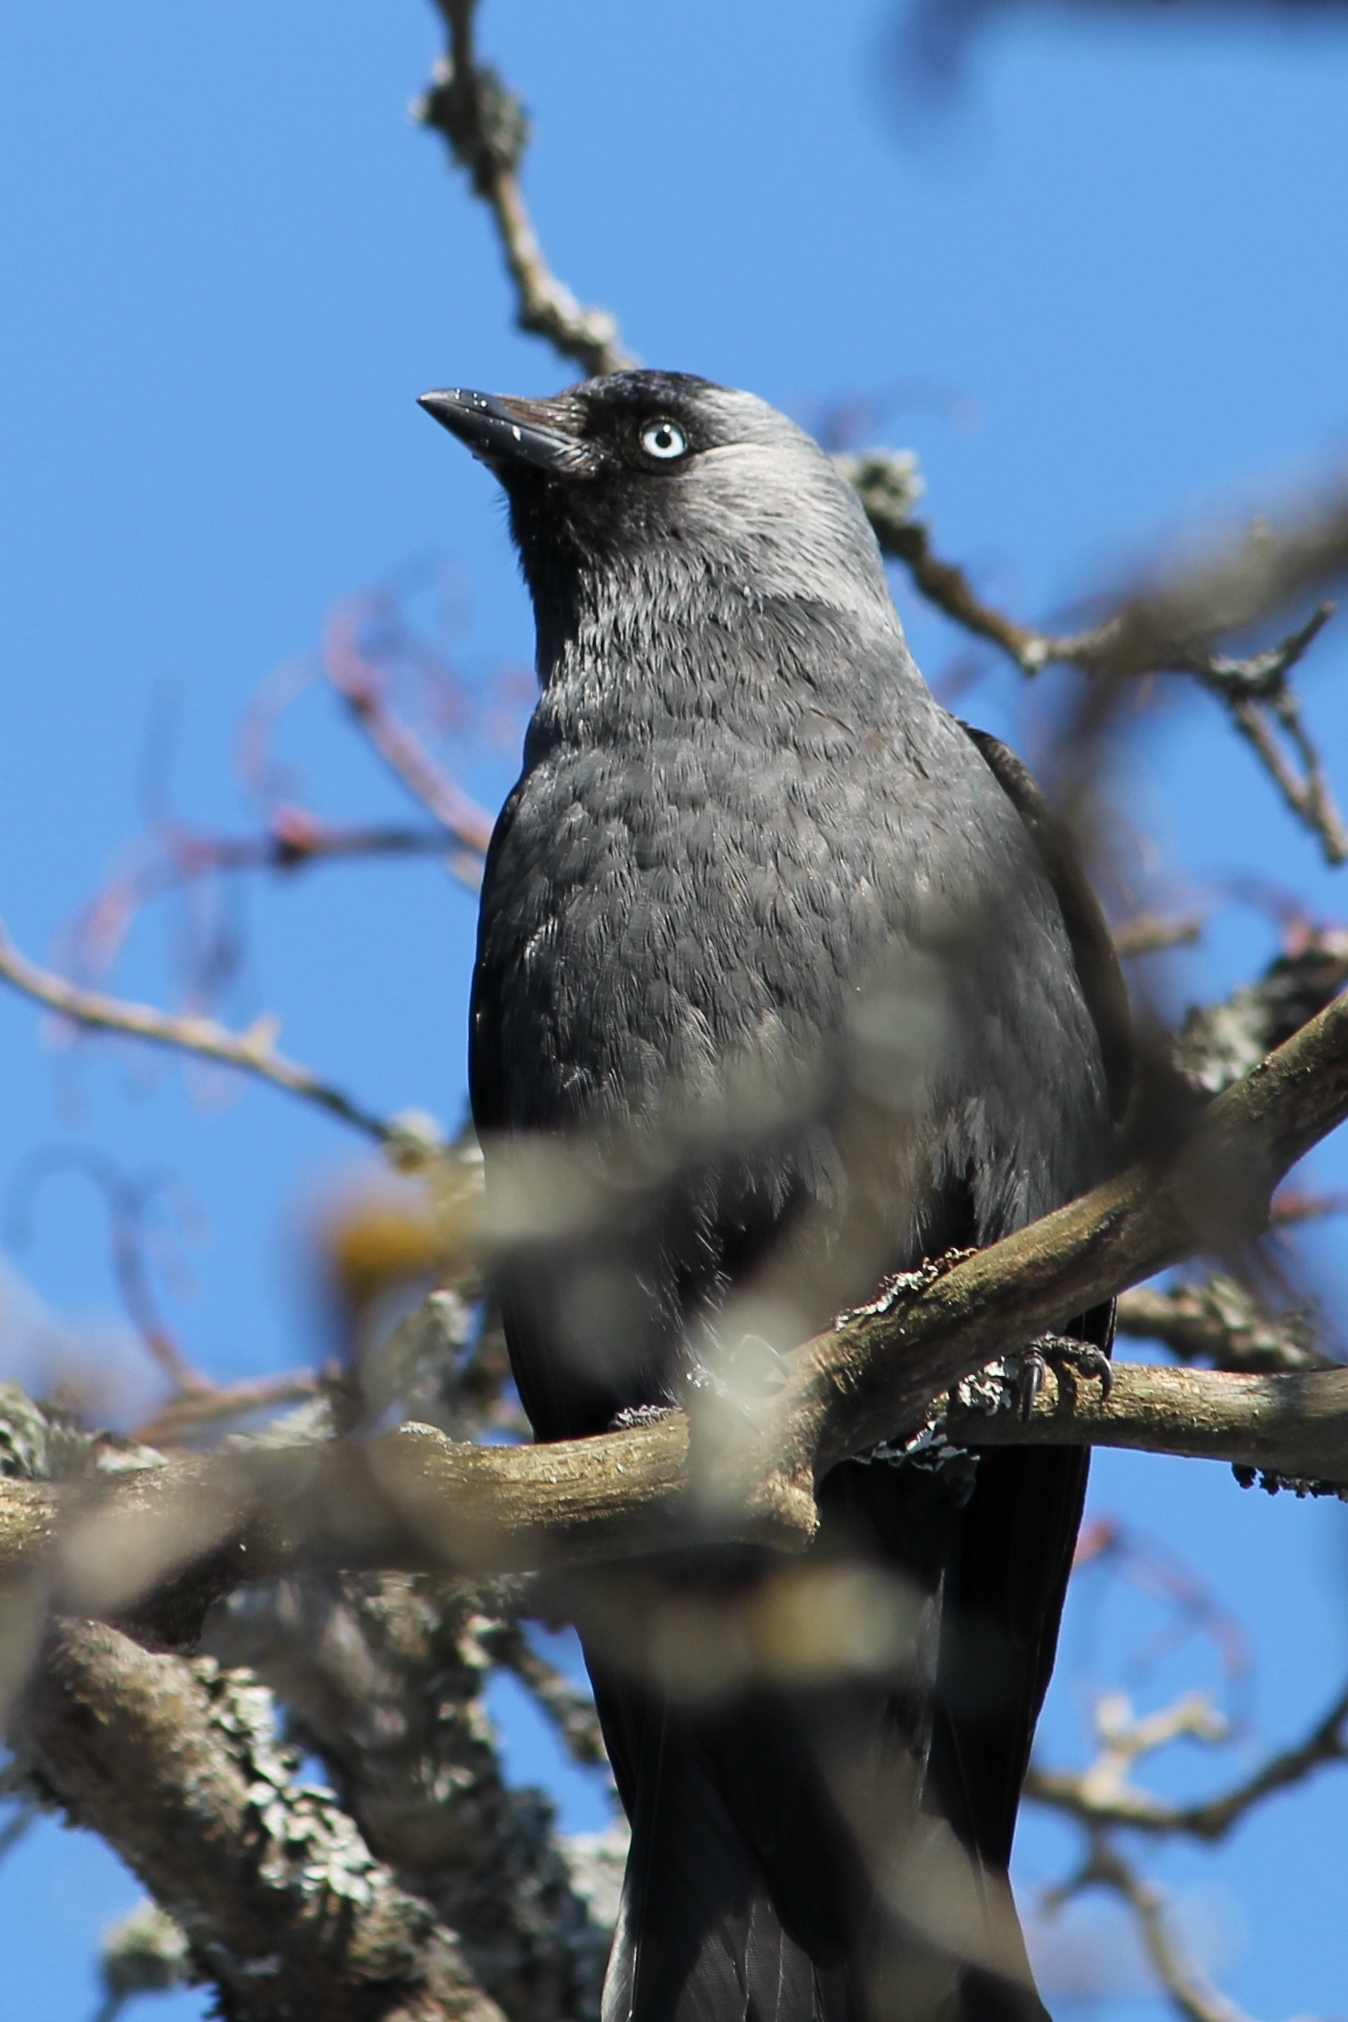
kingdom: Animalia
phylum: Chordata
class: Aves
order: Passeriformes
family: Corvidae
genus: Coloeus
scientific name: Coloeus monedula
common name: Western jackdaw
